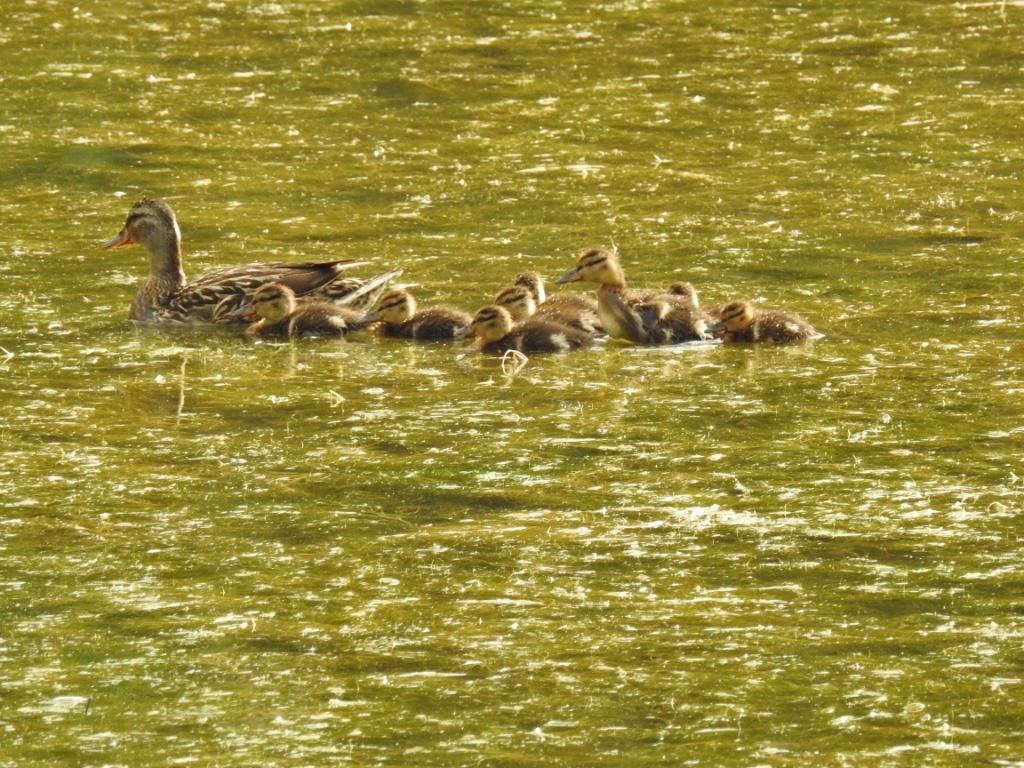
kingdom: Animalia
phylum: Chordata
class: Aves
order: Anseriformes
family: Anatidae
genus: Anas
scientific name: Anas platyrhynchos
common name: Mallard
